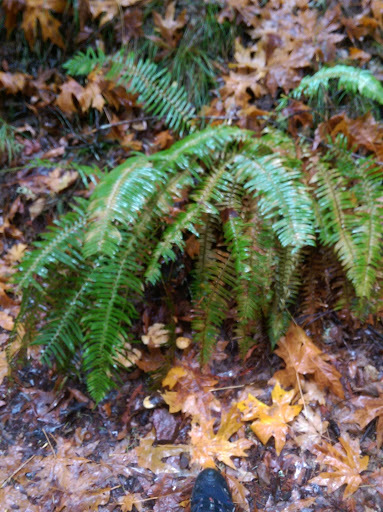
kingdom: Plantae
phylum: Tracheophyta
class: Polypodiopsida
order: Polypodiales
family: Dryopteridaceae
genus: Polystichum
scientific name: Polystichum munitum
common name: Western sword-fern
